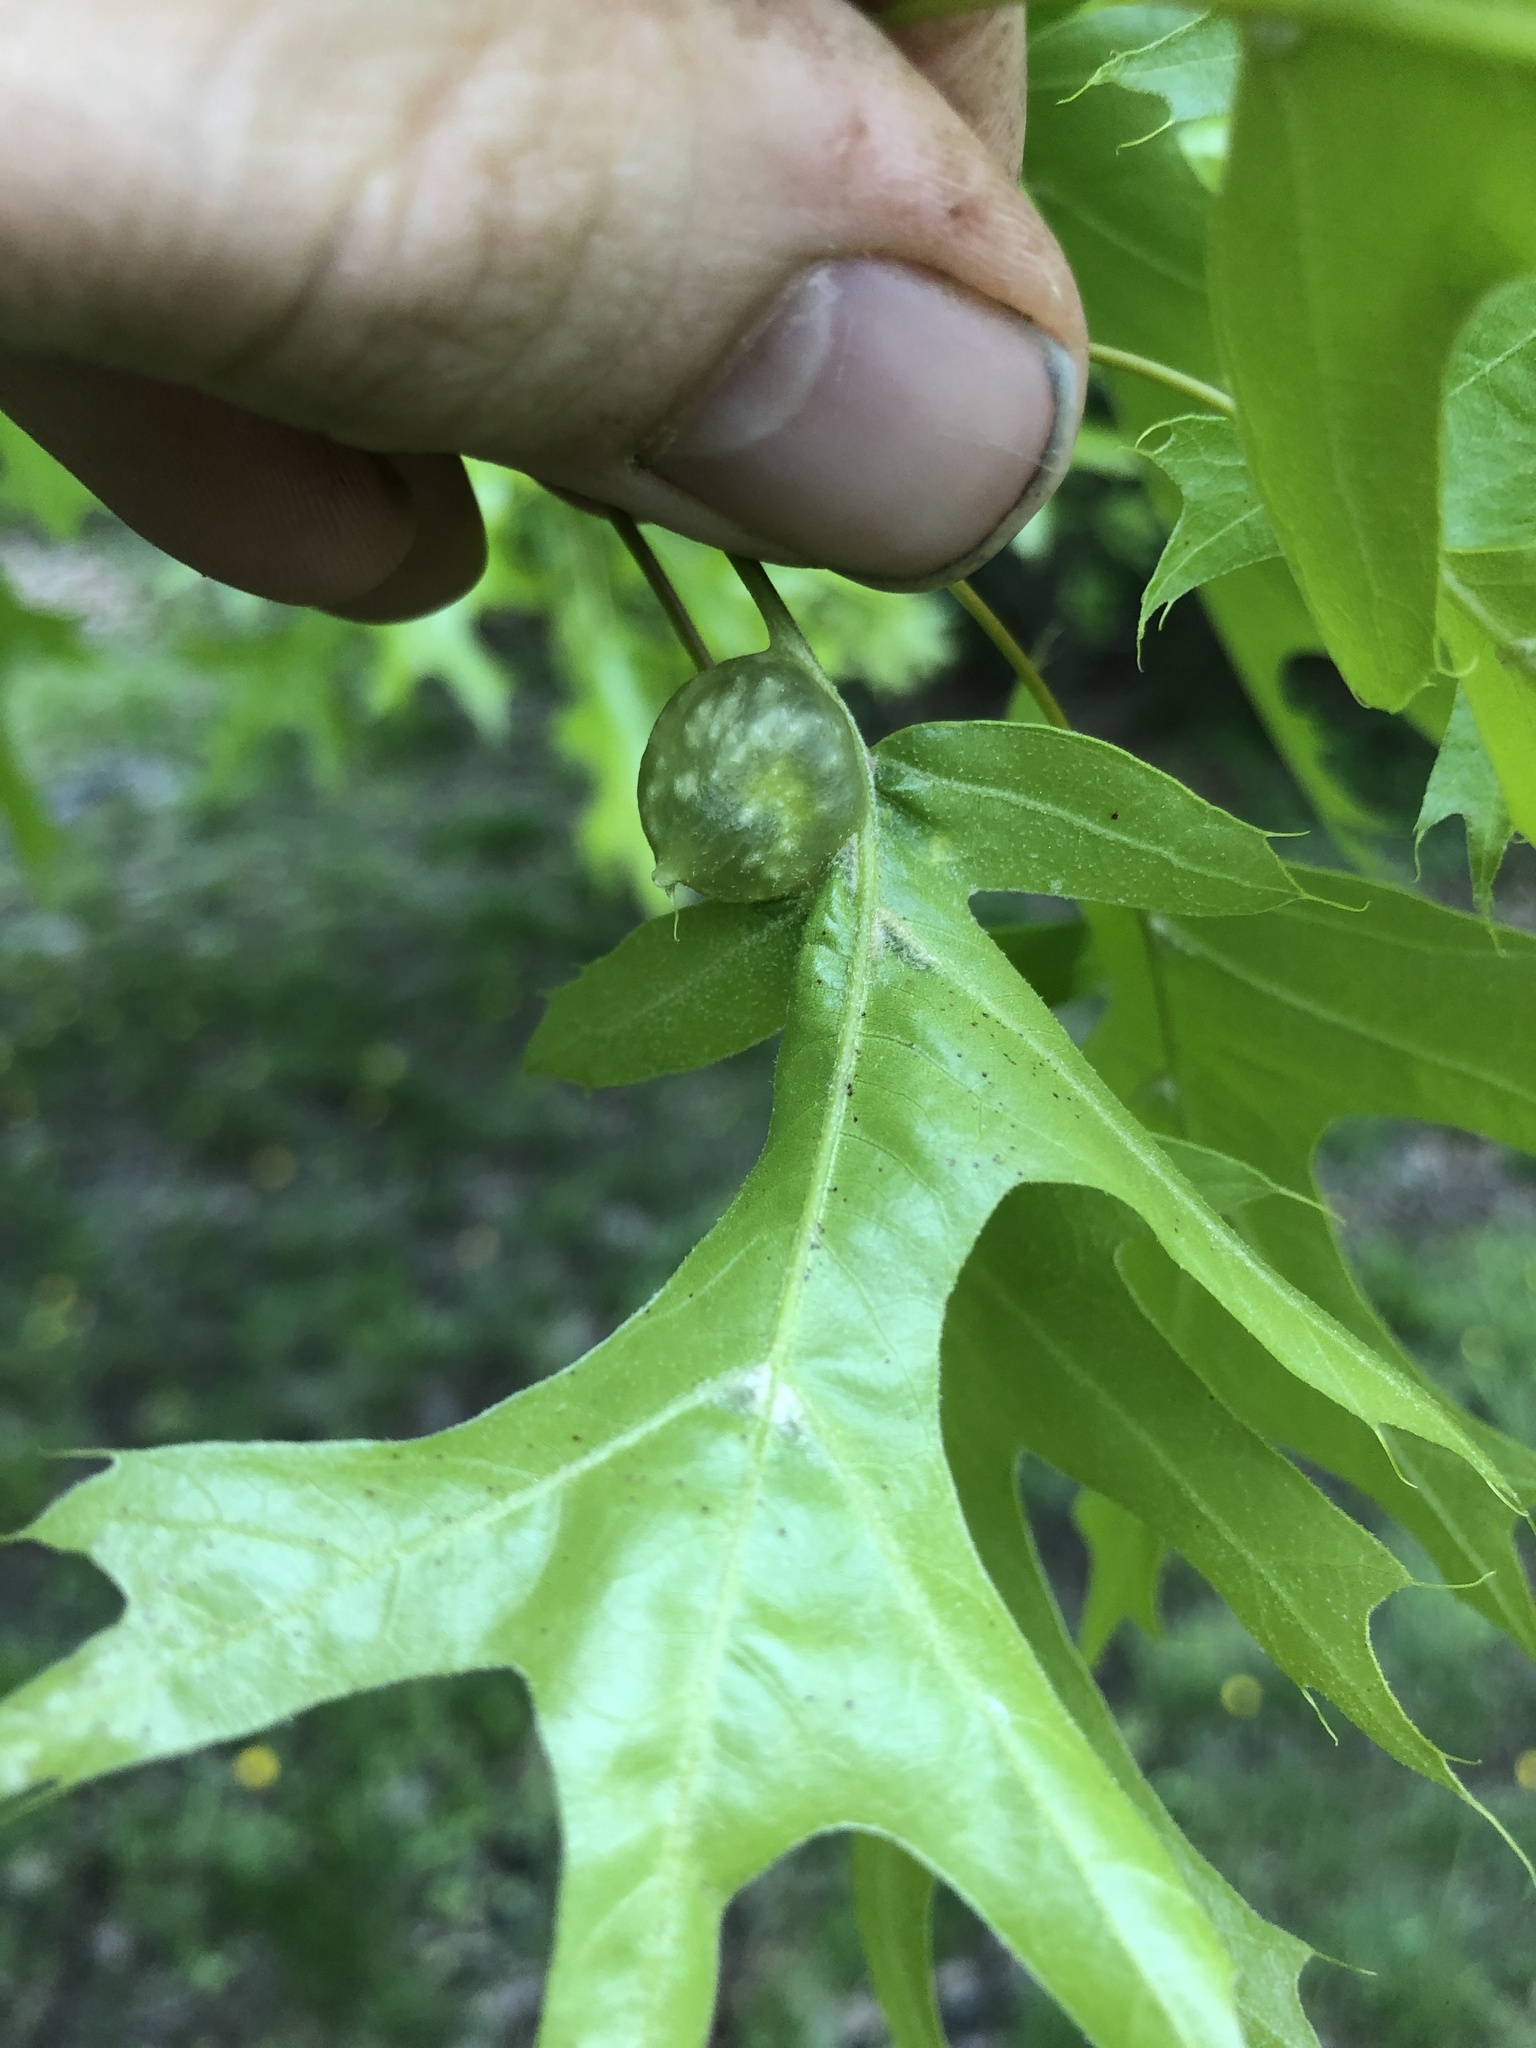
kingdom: Animalia
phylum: Arthropoda
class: Insecta
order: Hymenoptera
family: Cynipidae
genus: Dryocosmus
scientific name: Dryocosmus quercuspalustris
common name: Succulent oak gall wasp
